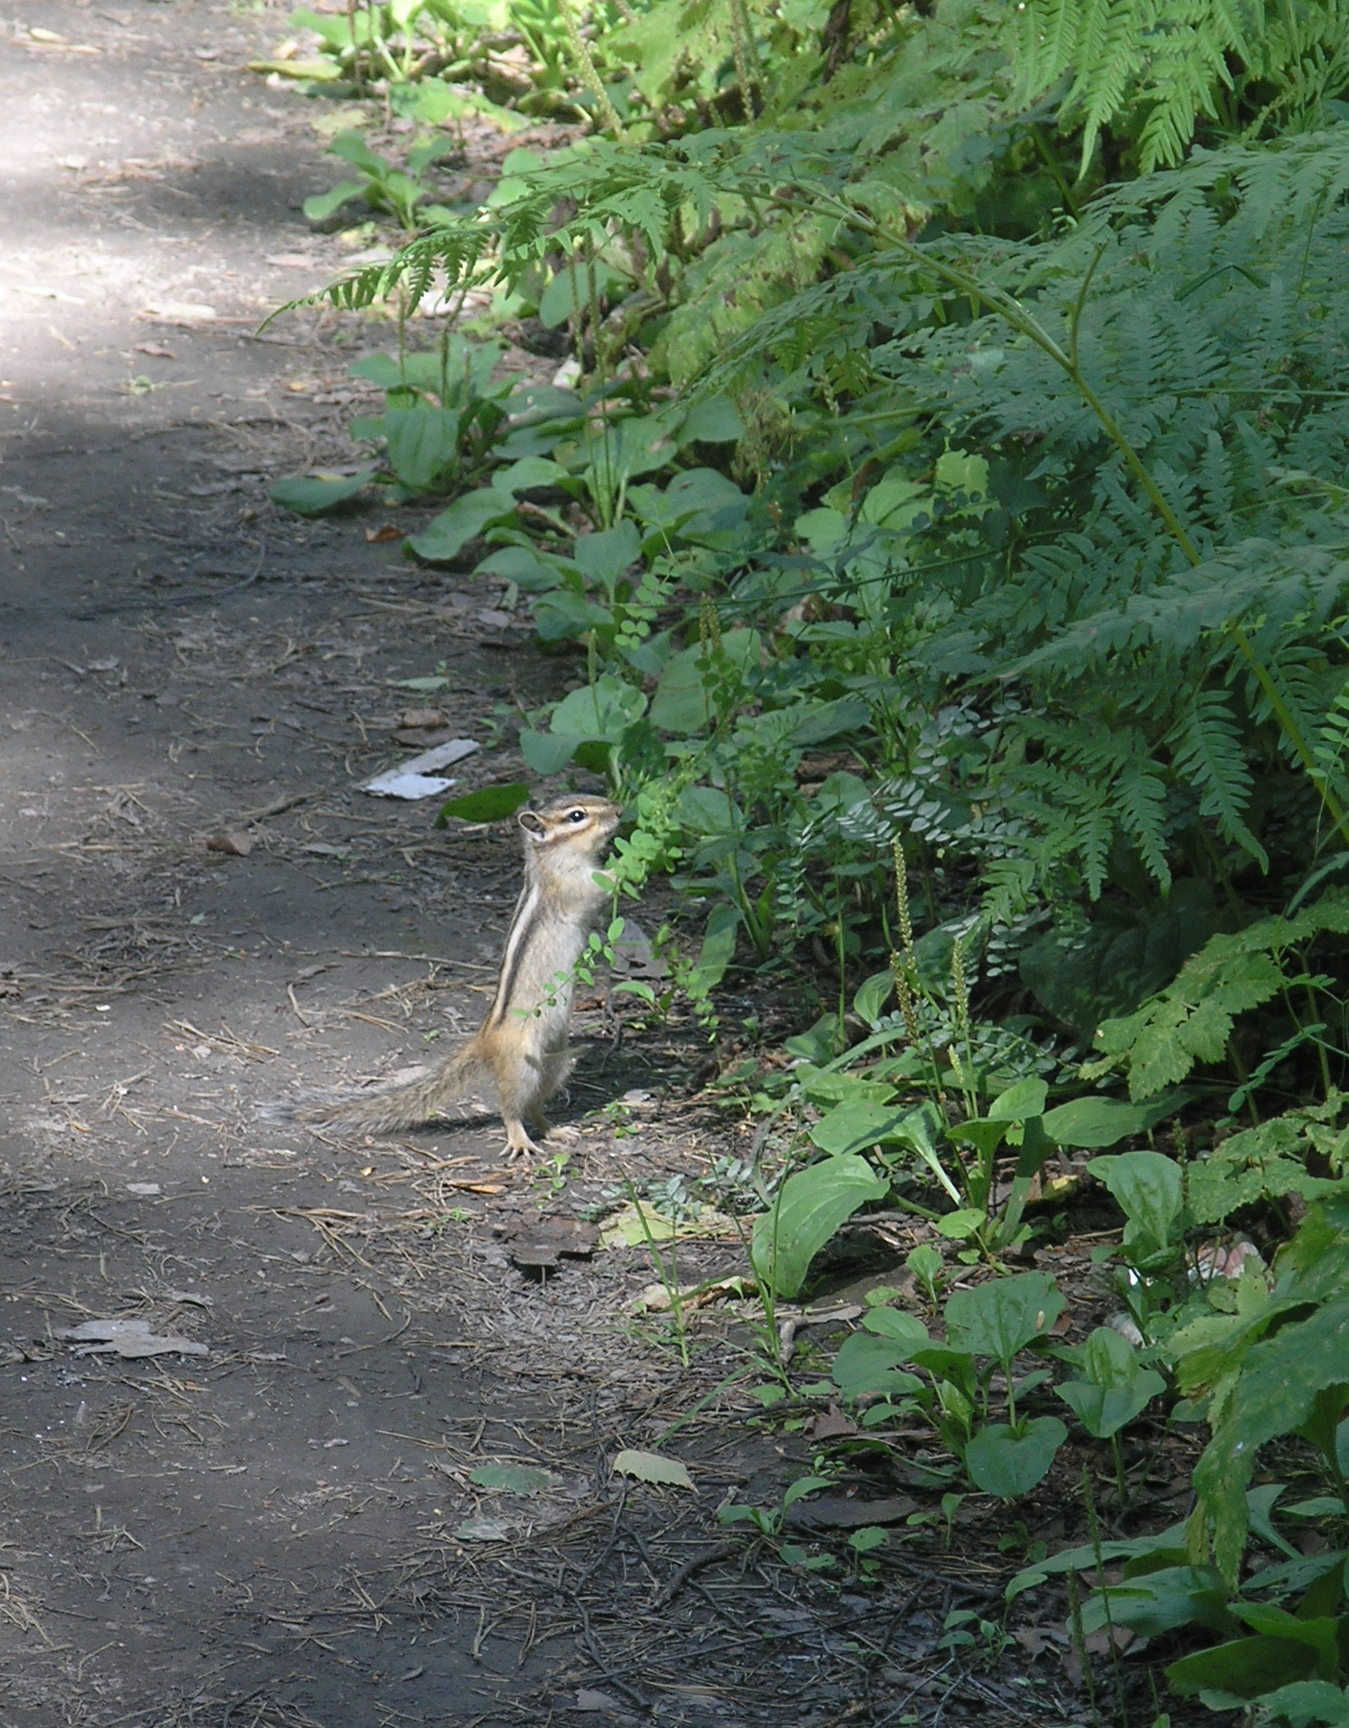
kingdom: Animalia
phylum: Chordata
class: Mammalia
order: Rodentia
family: Sciuridae
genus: Tamias
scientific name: Tamias sibiricus
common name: Siberian chipmunk
